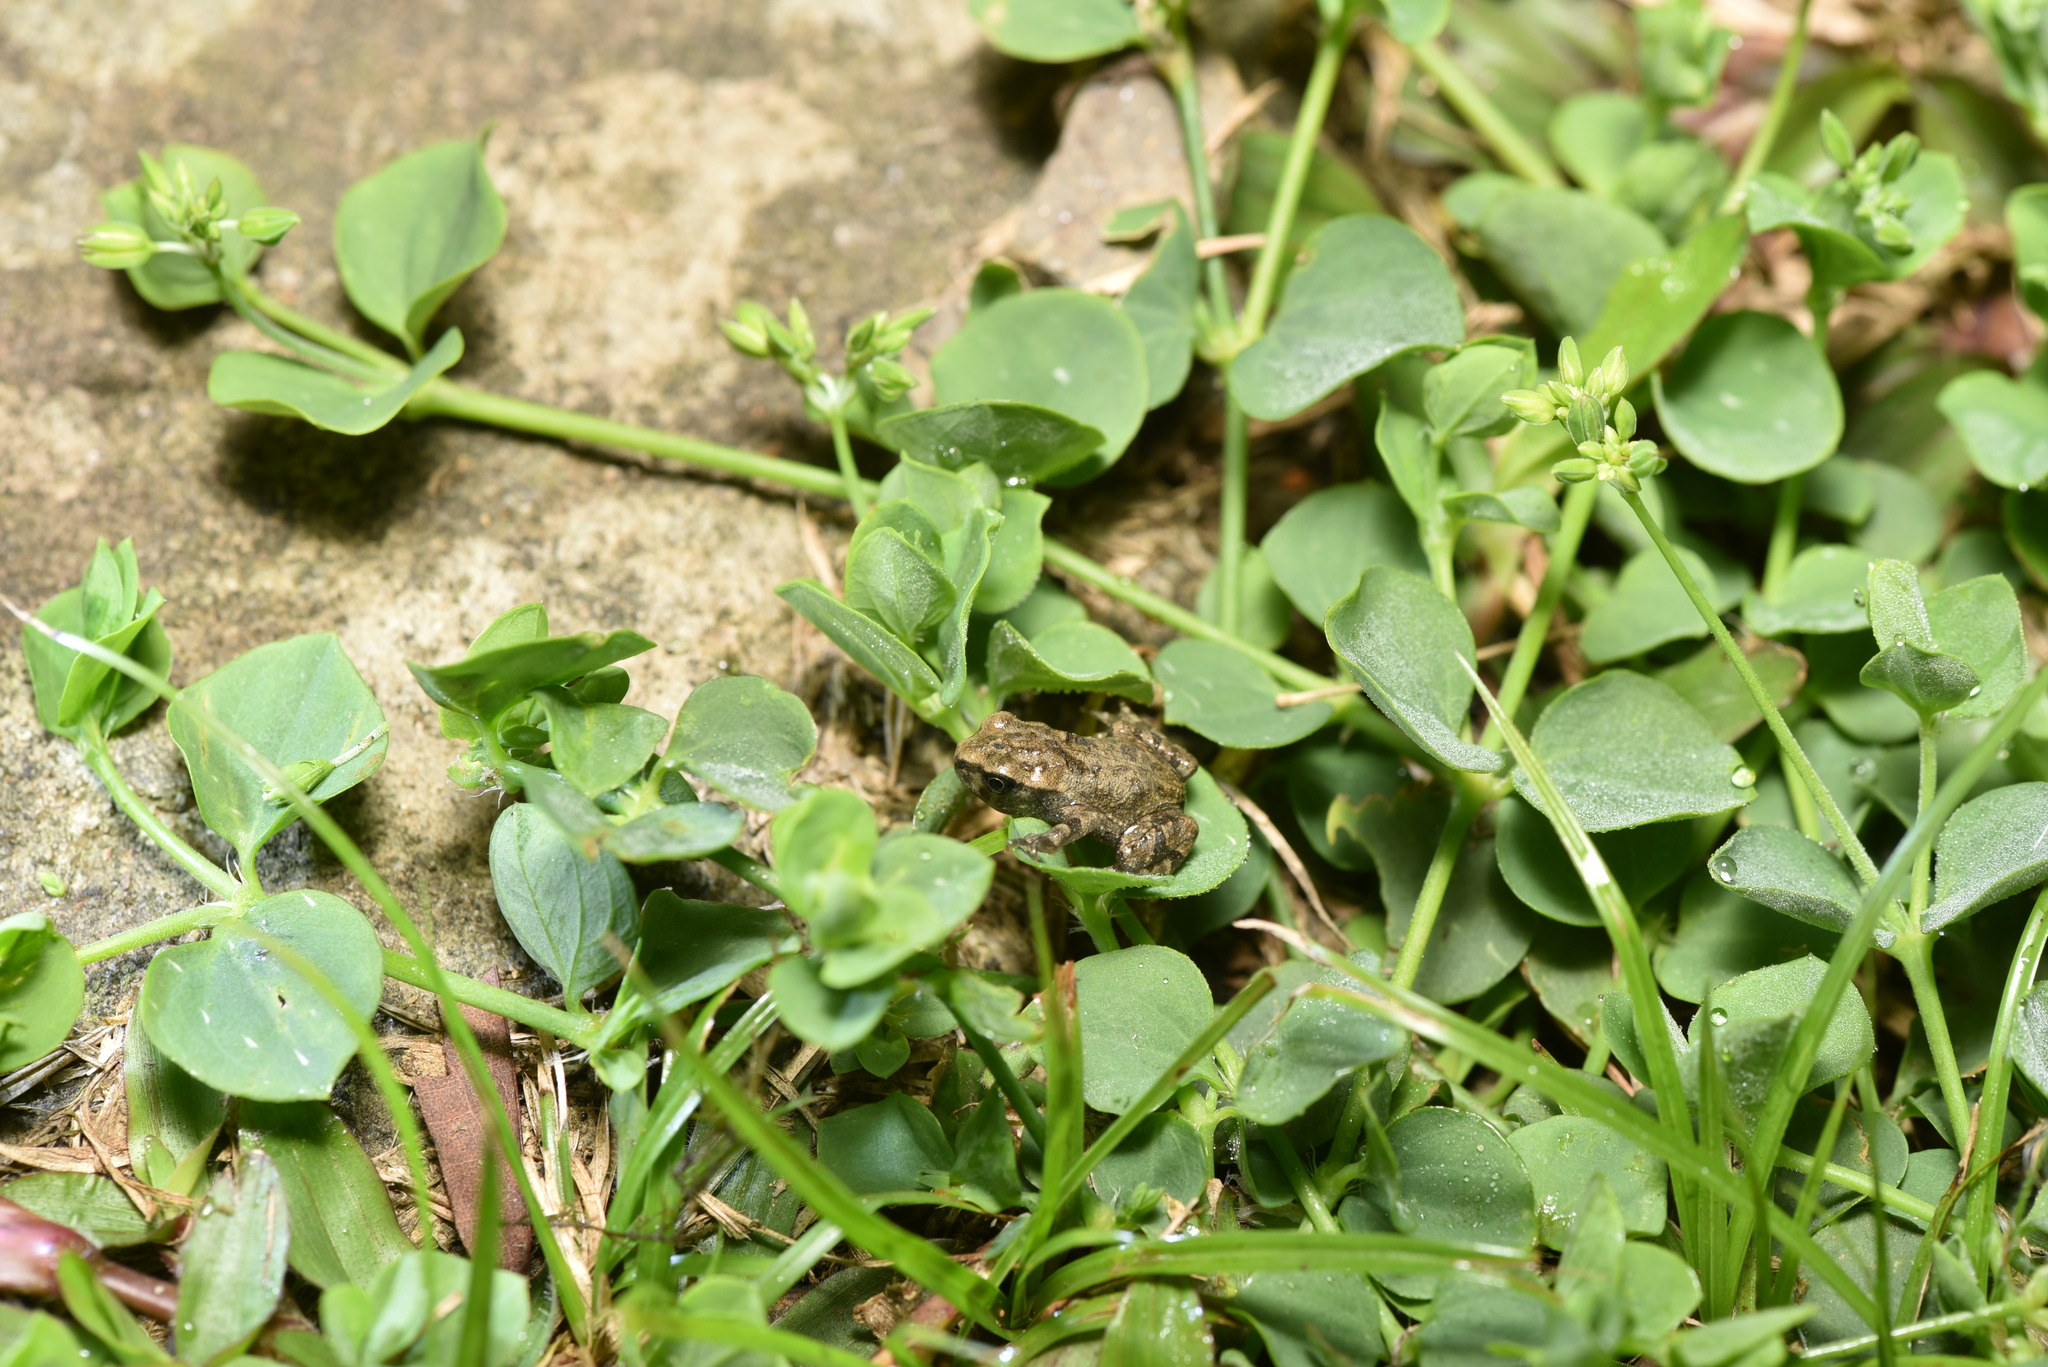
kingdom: Animalia
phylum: Chordata
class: Amphibia
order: Anura
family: Bufonidae
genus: Bufo
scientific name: Bufo bankorensis
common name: Bankor toad
